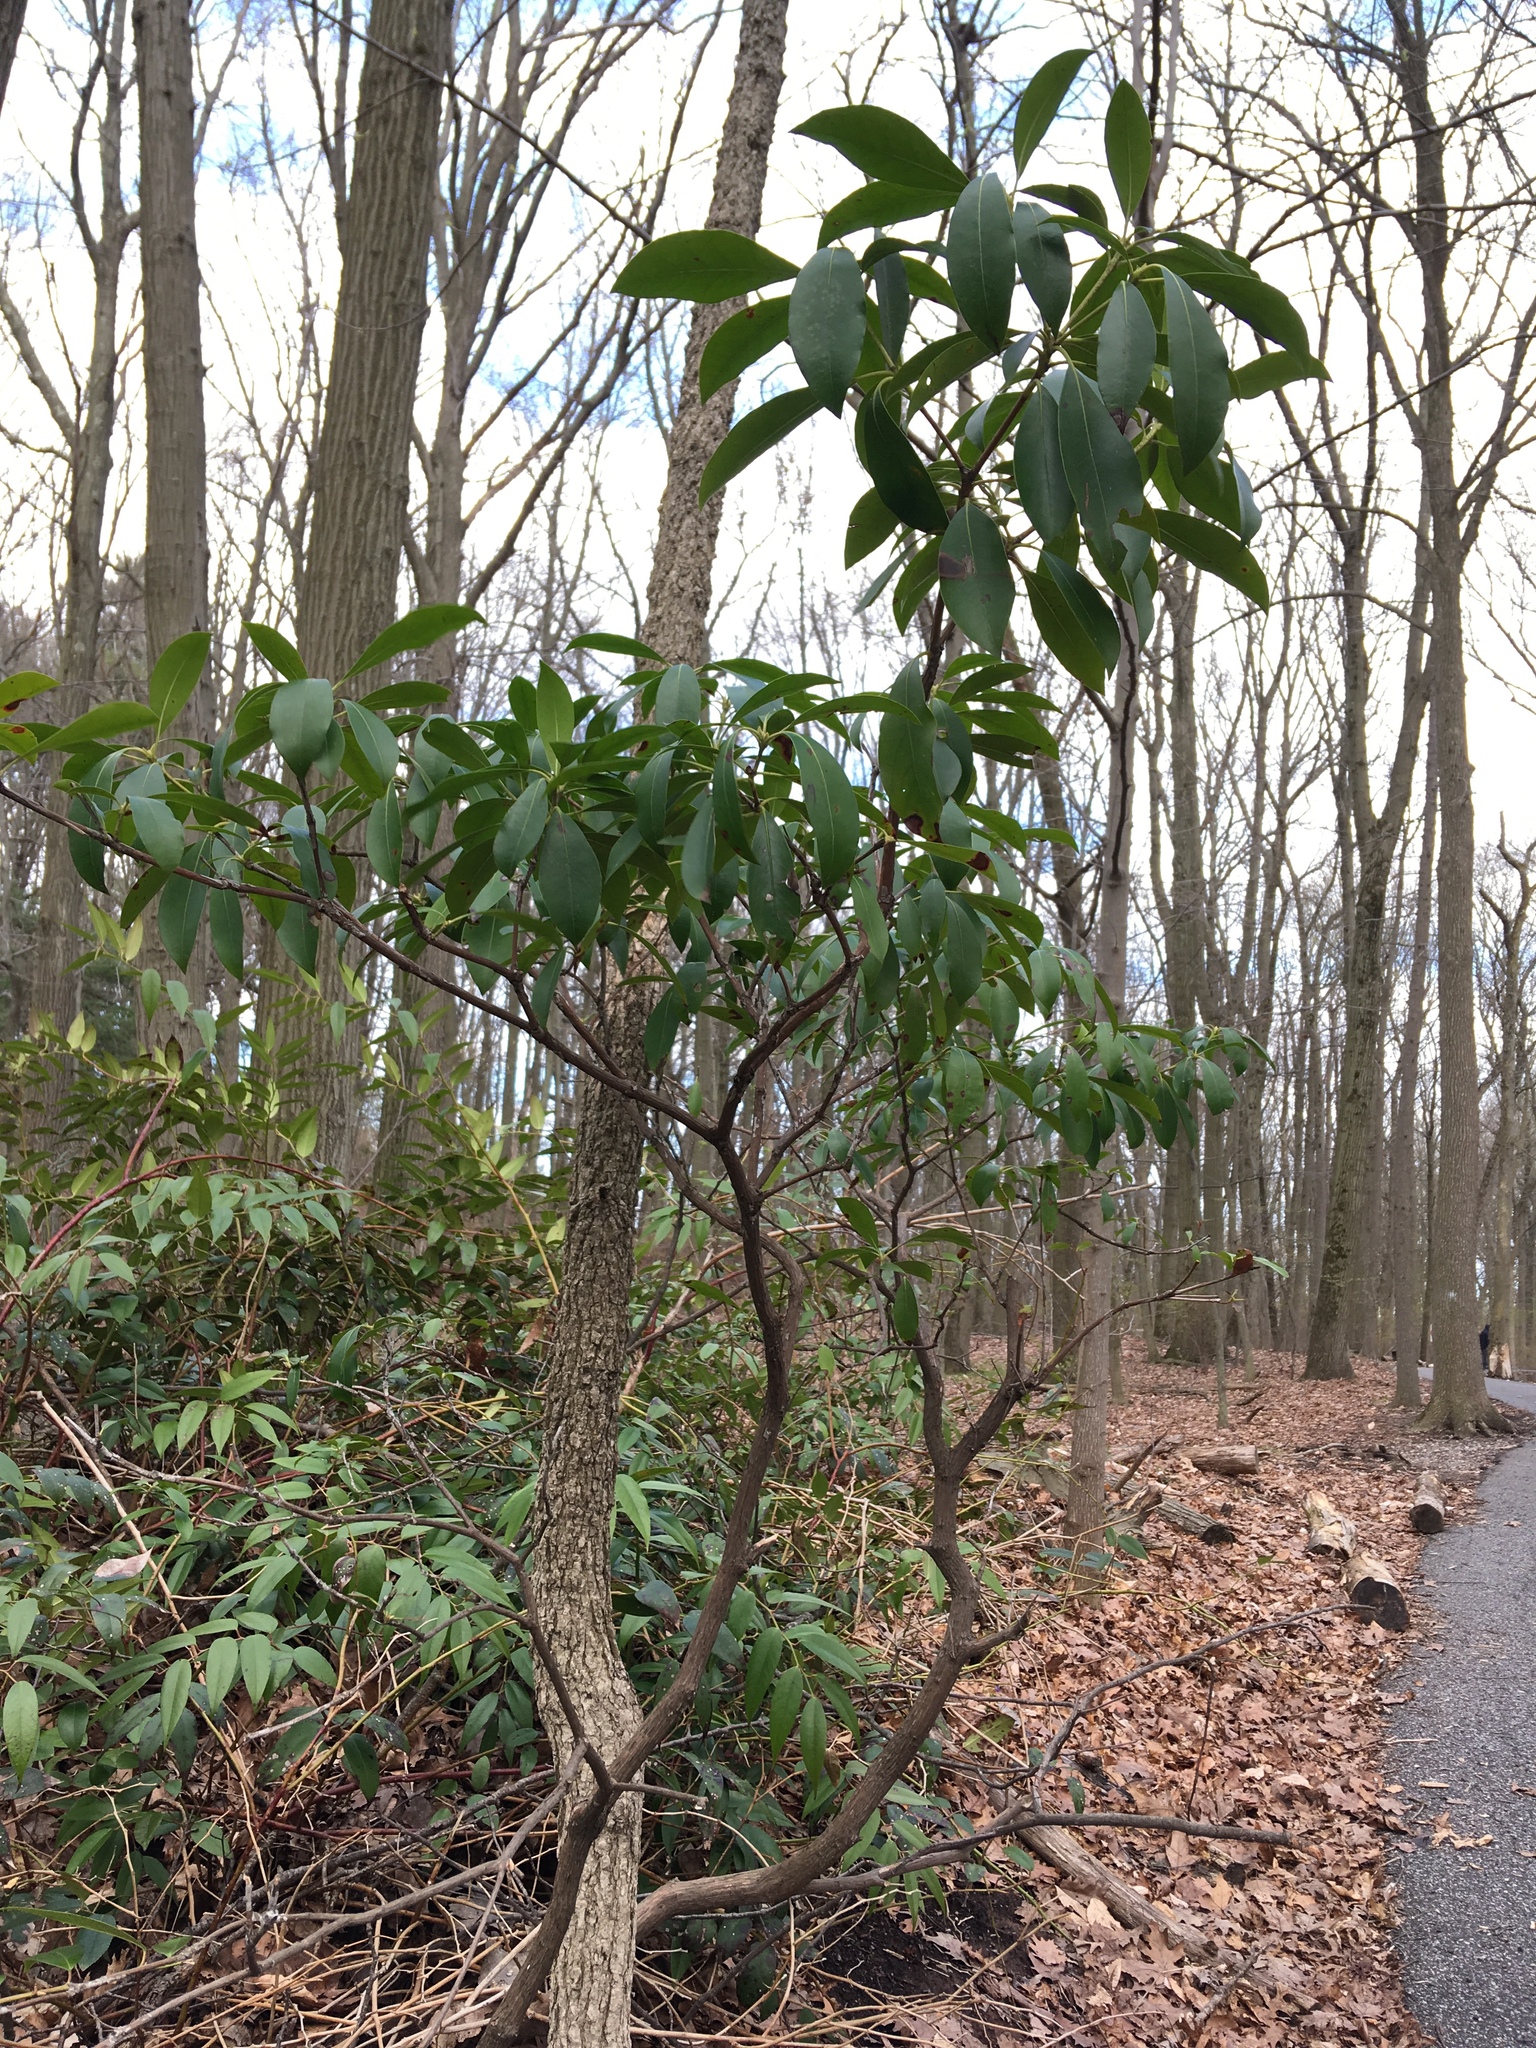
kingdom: Plantae
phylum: Tracheophyta
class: Magnoliopsida
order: Ericales
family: Ericaceae
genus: Kalmia
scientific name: Kalmia latifolia
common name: Mountain-laurel
